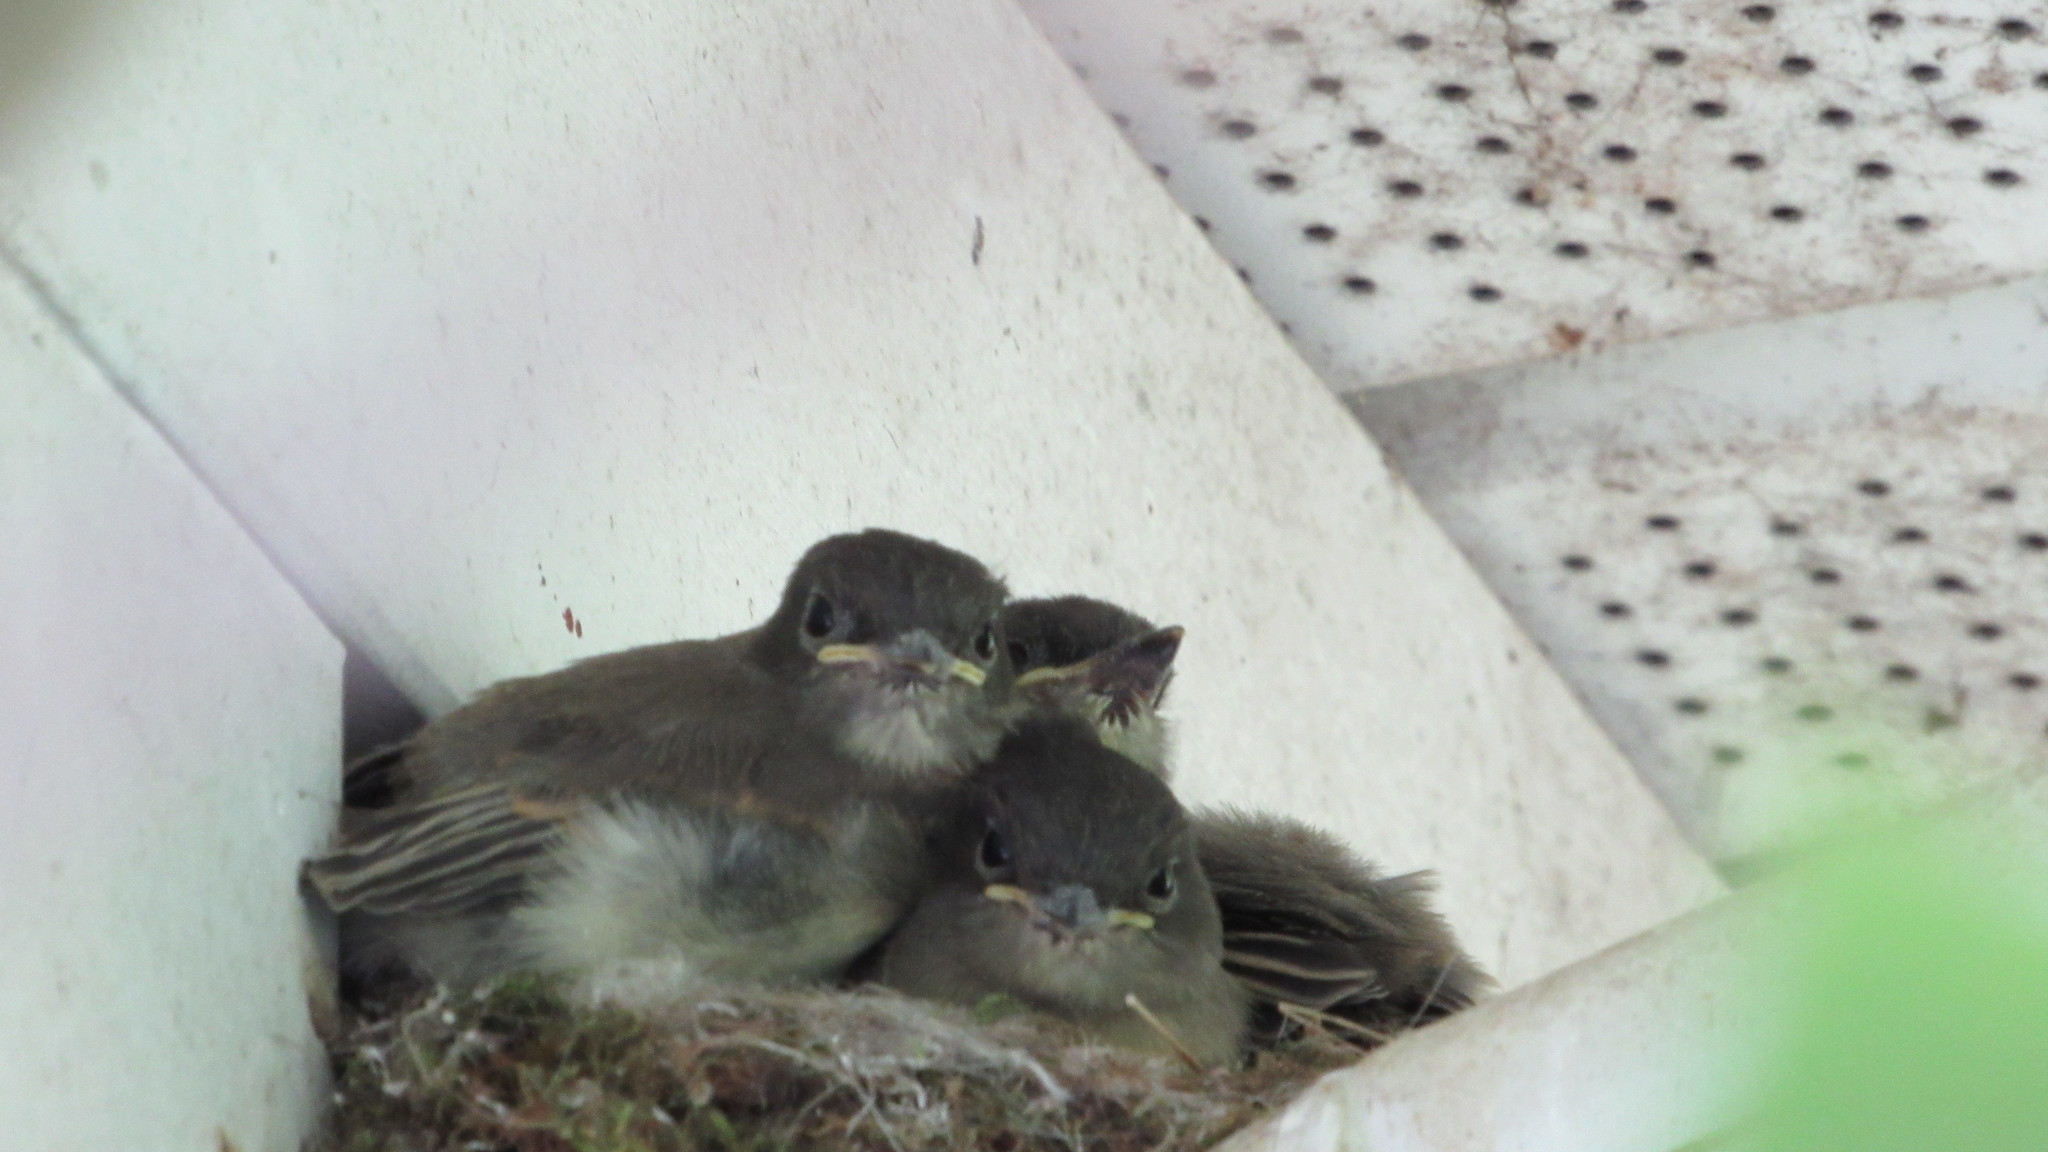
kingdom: Animalia
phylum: Chordata
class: Aves
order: Passeriformes
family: Tyrannidae
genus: Sayornis
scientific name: Sayornis phoebe
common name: Eastern phoebe
